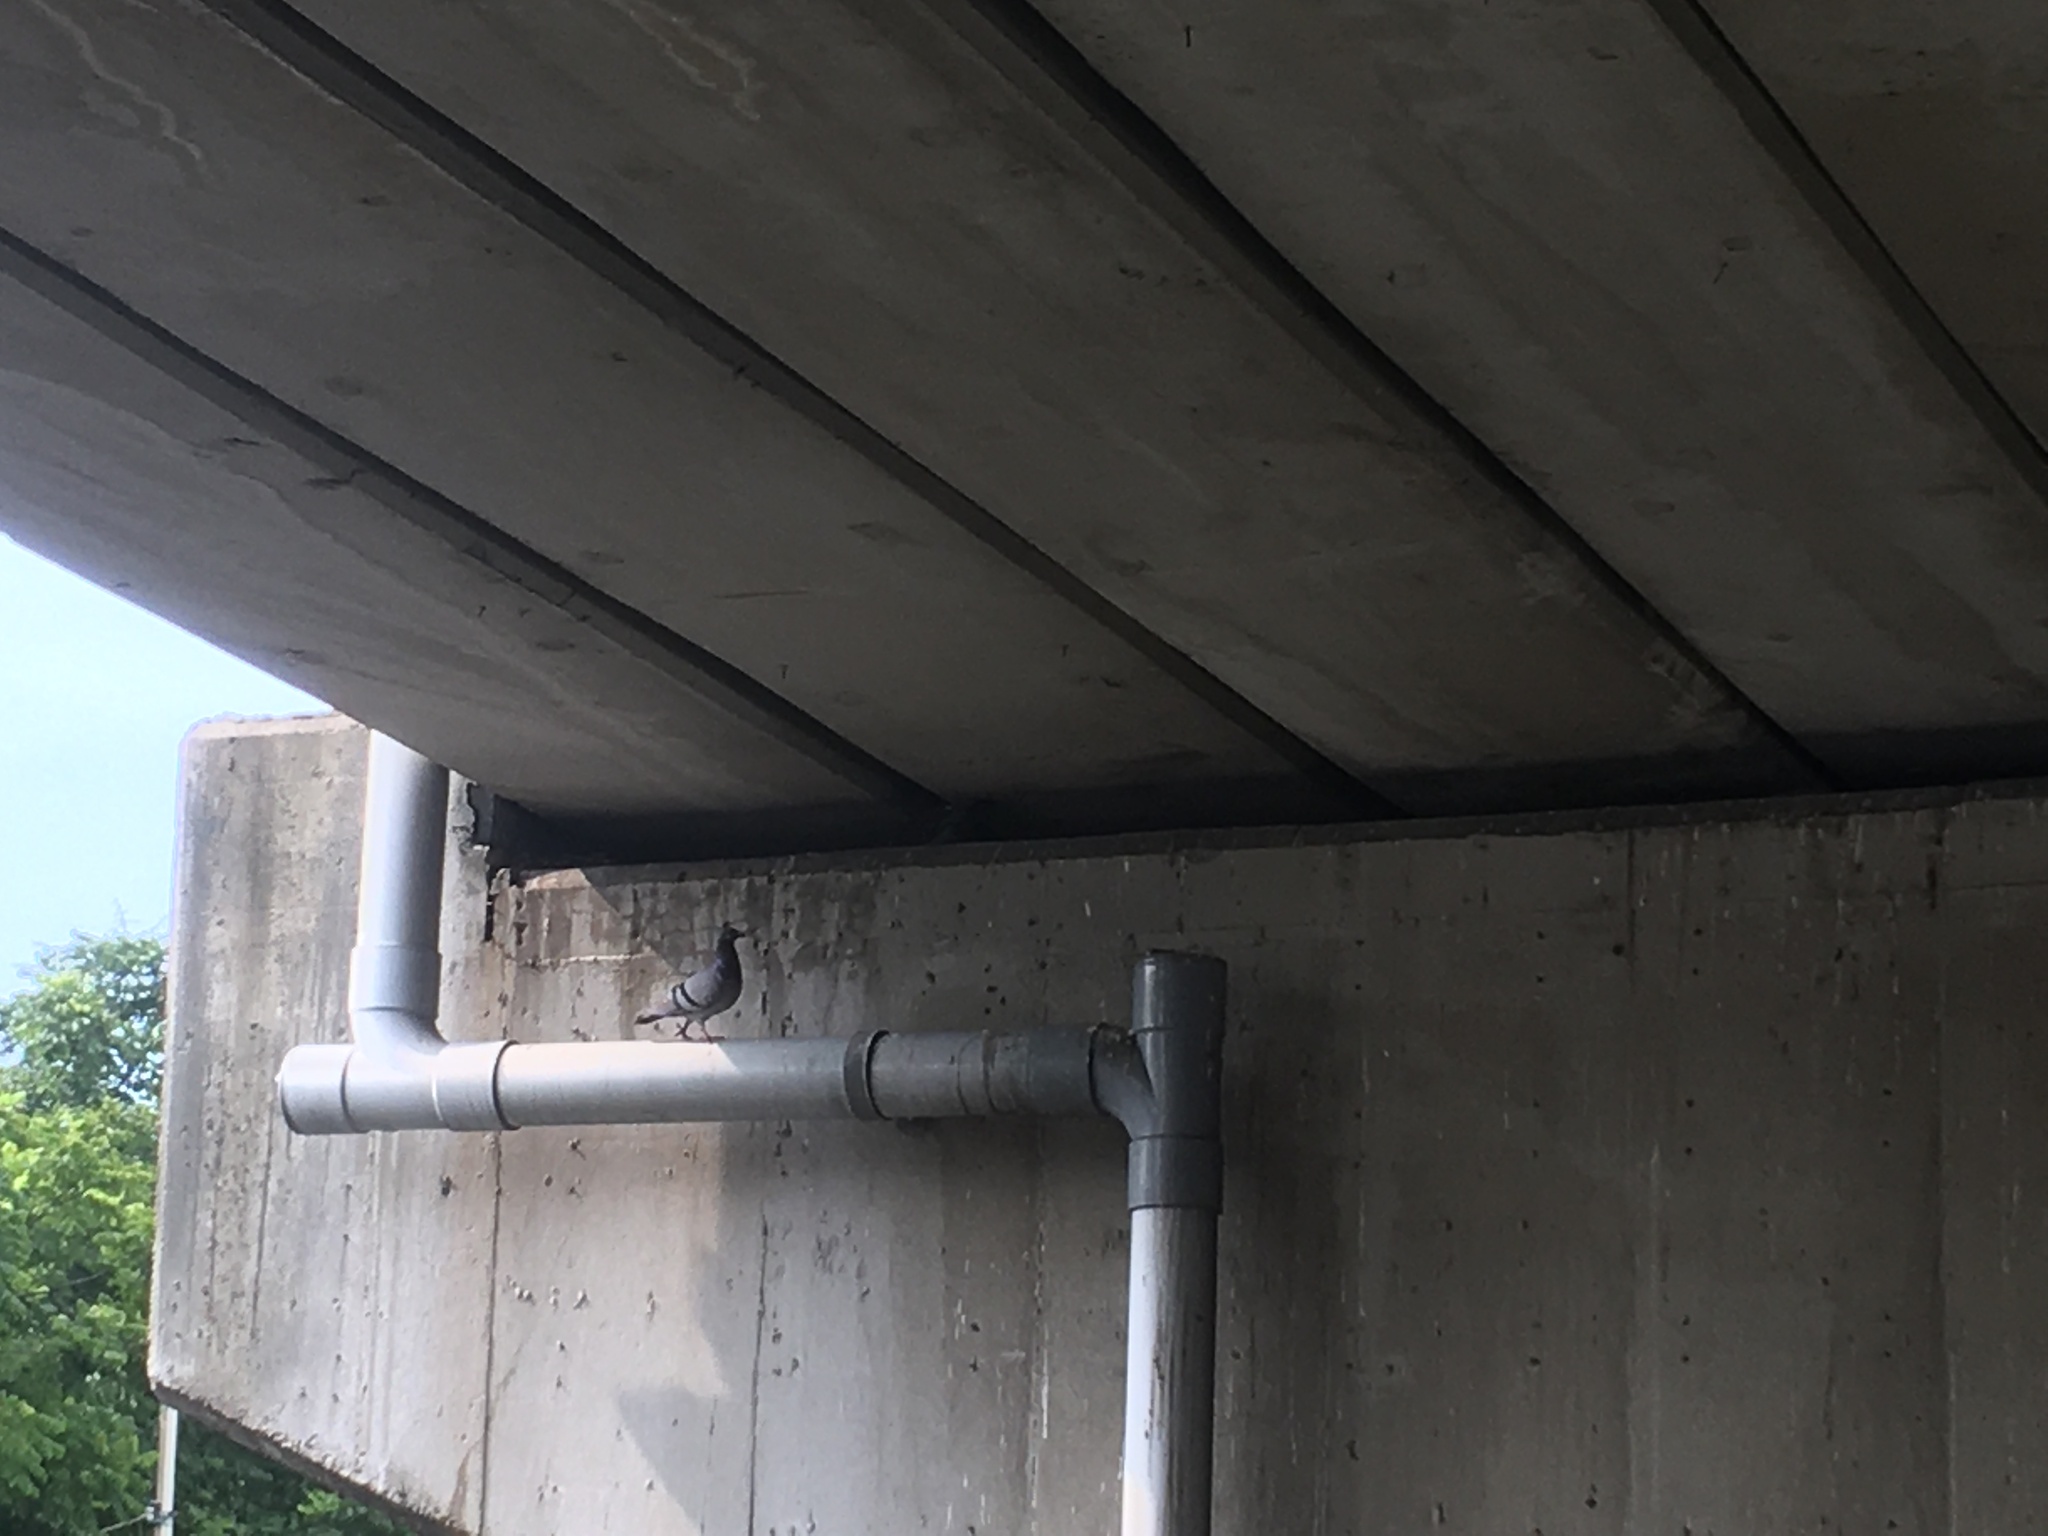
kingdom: Animalia
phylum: Chordata
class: Aves
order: Columbiformes
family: Columbidae
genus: Columba
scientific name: Columba livia
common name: Rock pigeon
